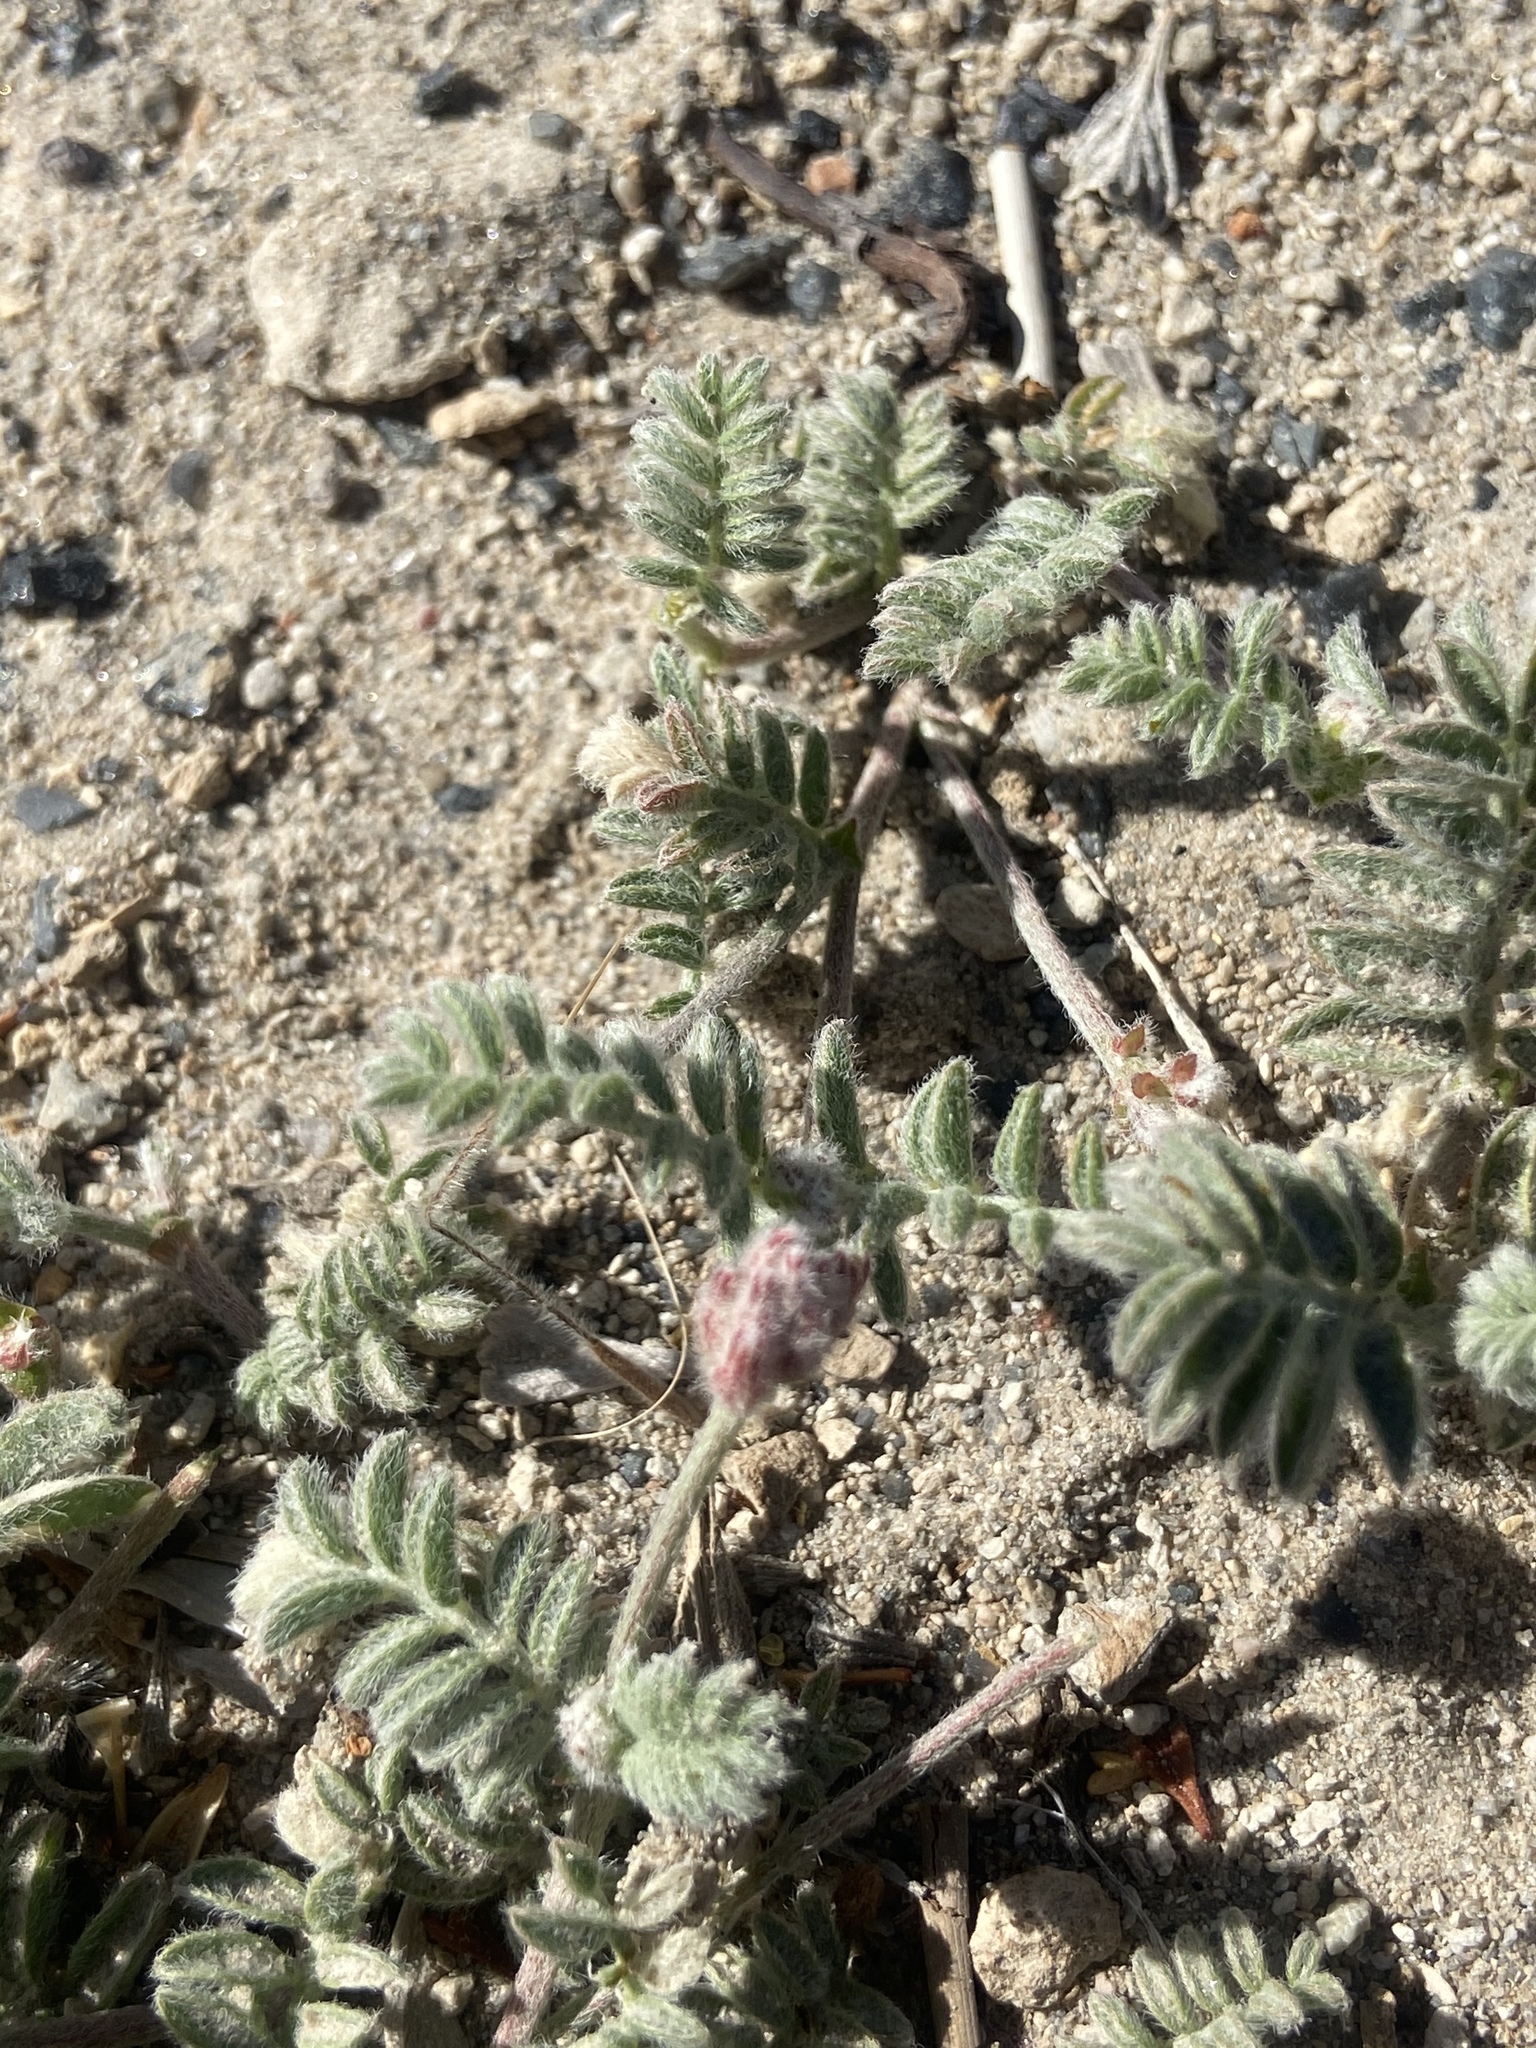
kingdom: Plantae
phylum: Tracheophyta
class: Magnoliopsida
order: Fabales
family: Fabaceae
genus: Astragalus
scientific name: Astragalus monoensis
